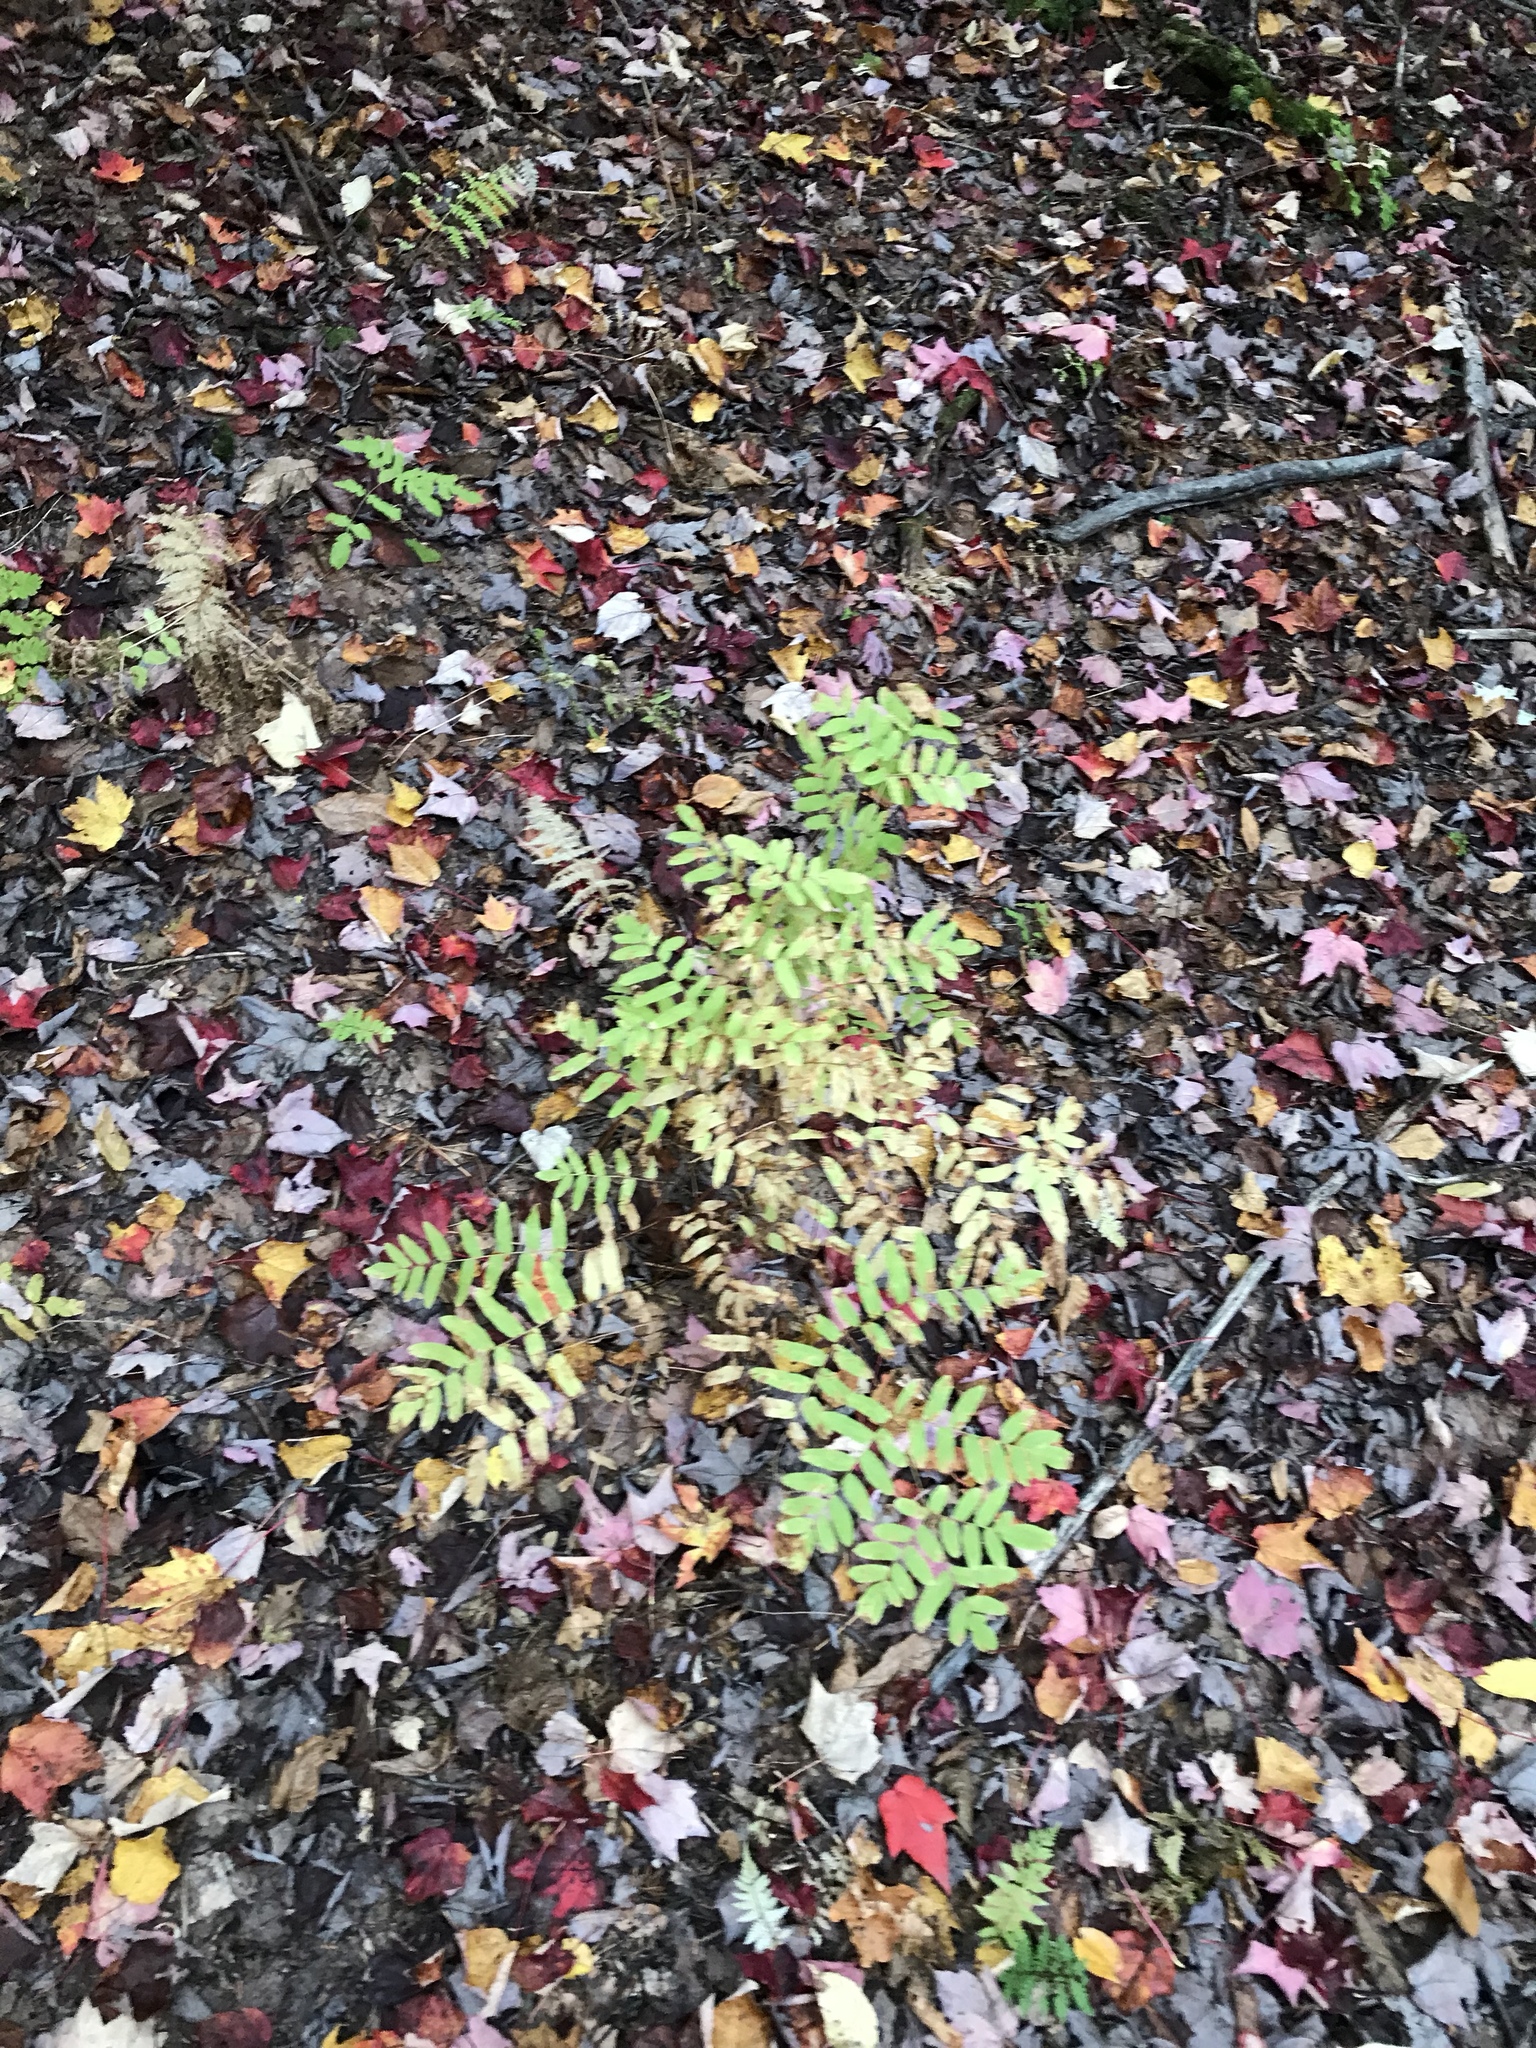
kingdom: Plantae
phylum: Tracheophyta
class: Polypodiopsida
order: Osmundales
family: Osmundaceae
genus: Osmunda
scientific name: Osmunda spectabilis
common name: American royal fern
